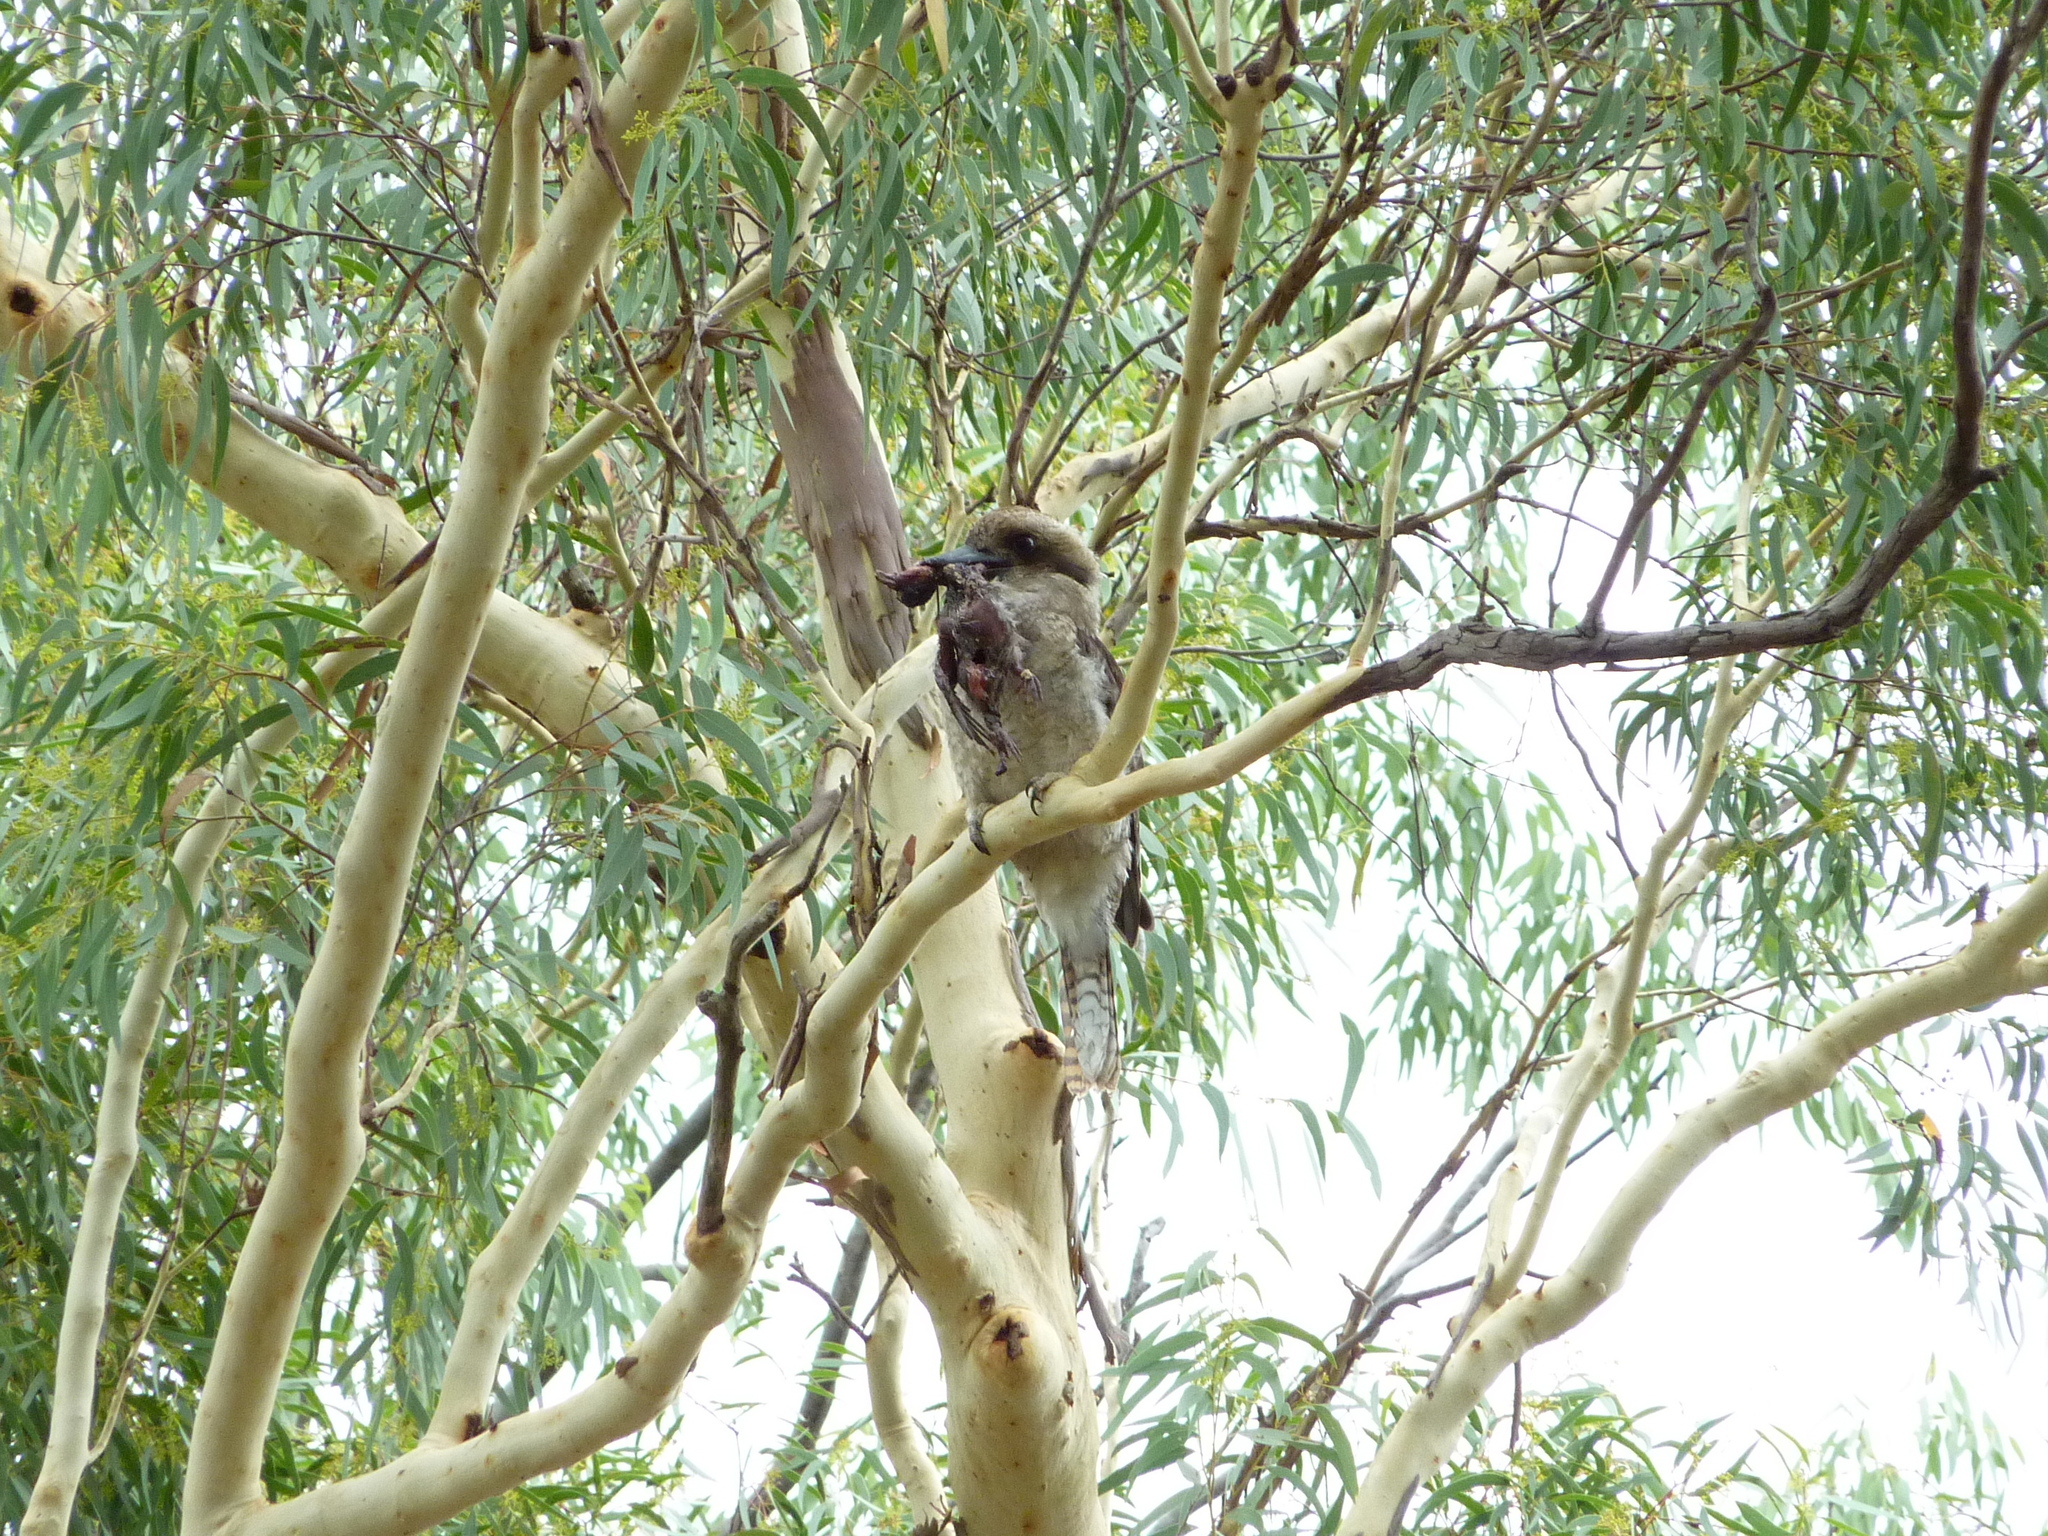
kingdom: Animalia
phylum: Chordata
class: Aves
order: Coraciiformes
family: Alcedinidae
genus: Dacelo
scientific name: Dacelo novaeguineae
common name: Laughing kookaburra
